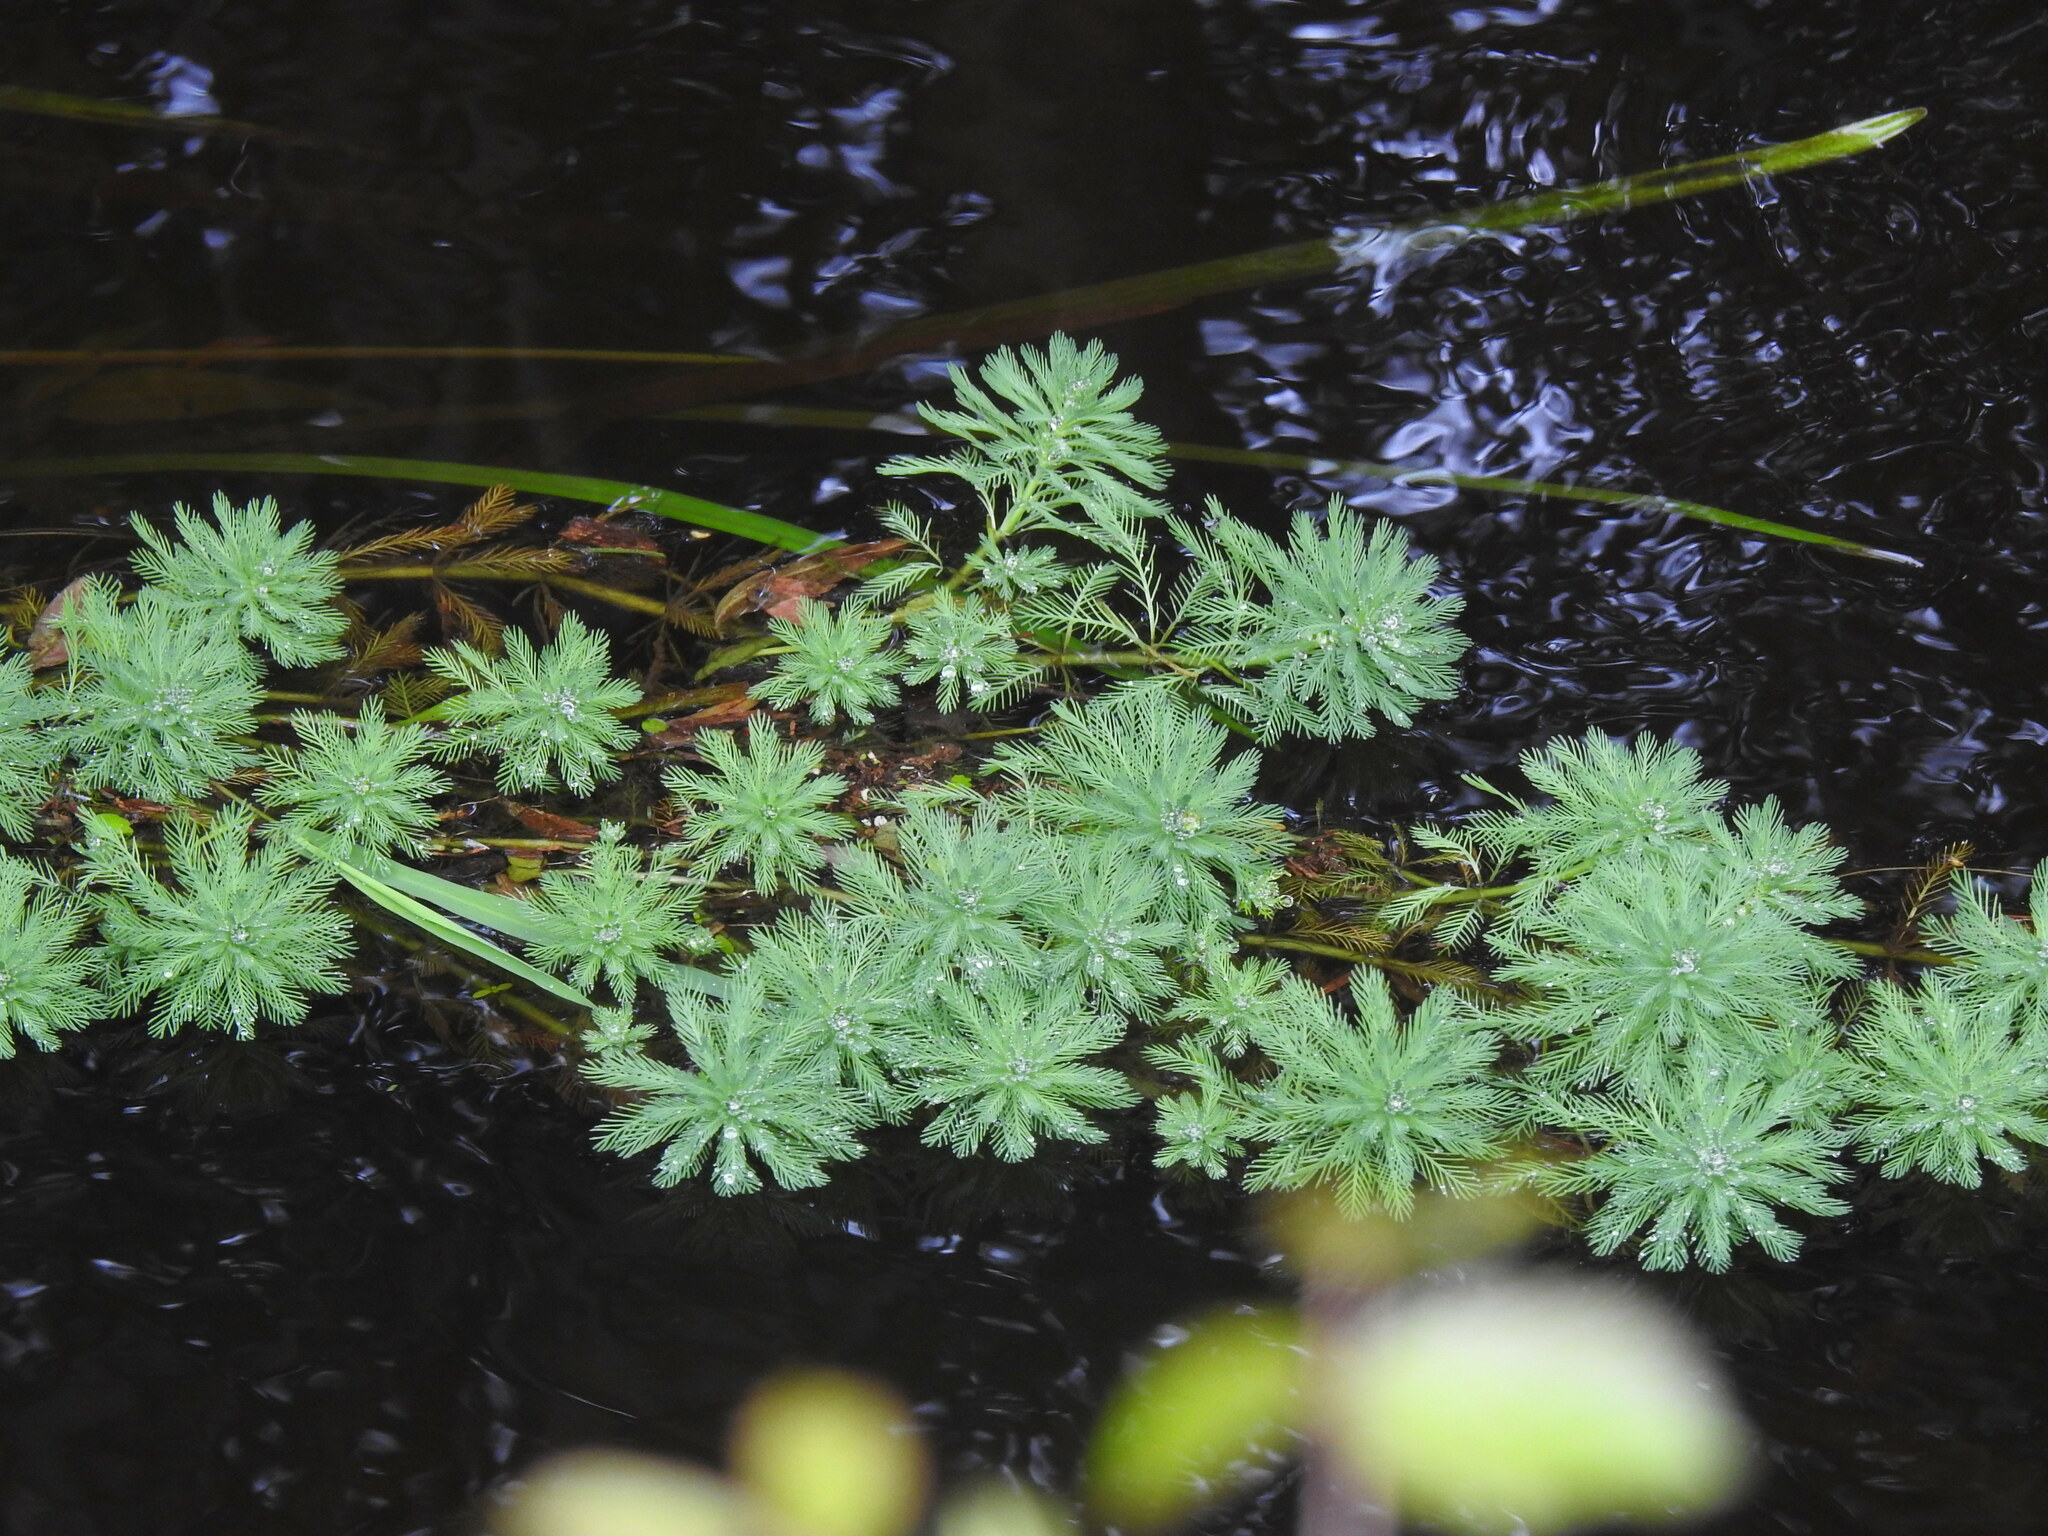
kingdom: Plantae
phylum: Tracheophyta
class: Magnoliopsida
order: Saxifragales
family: Haloragaceae
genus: Myriophyllum
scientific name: Myriophyllum aquaticum
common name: Parrot's feather
